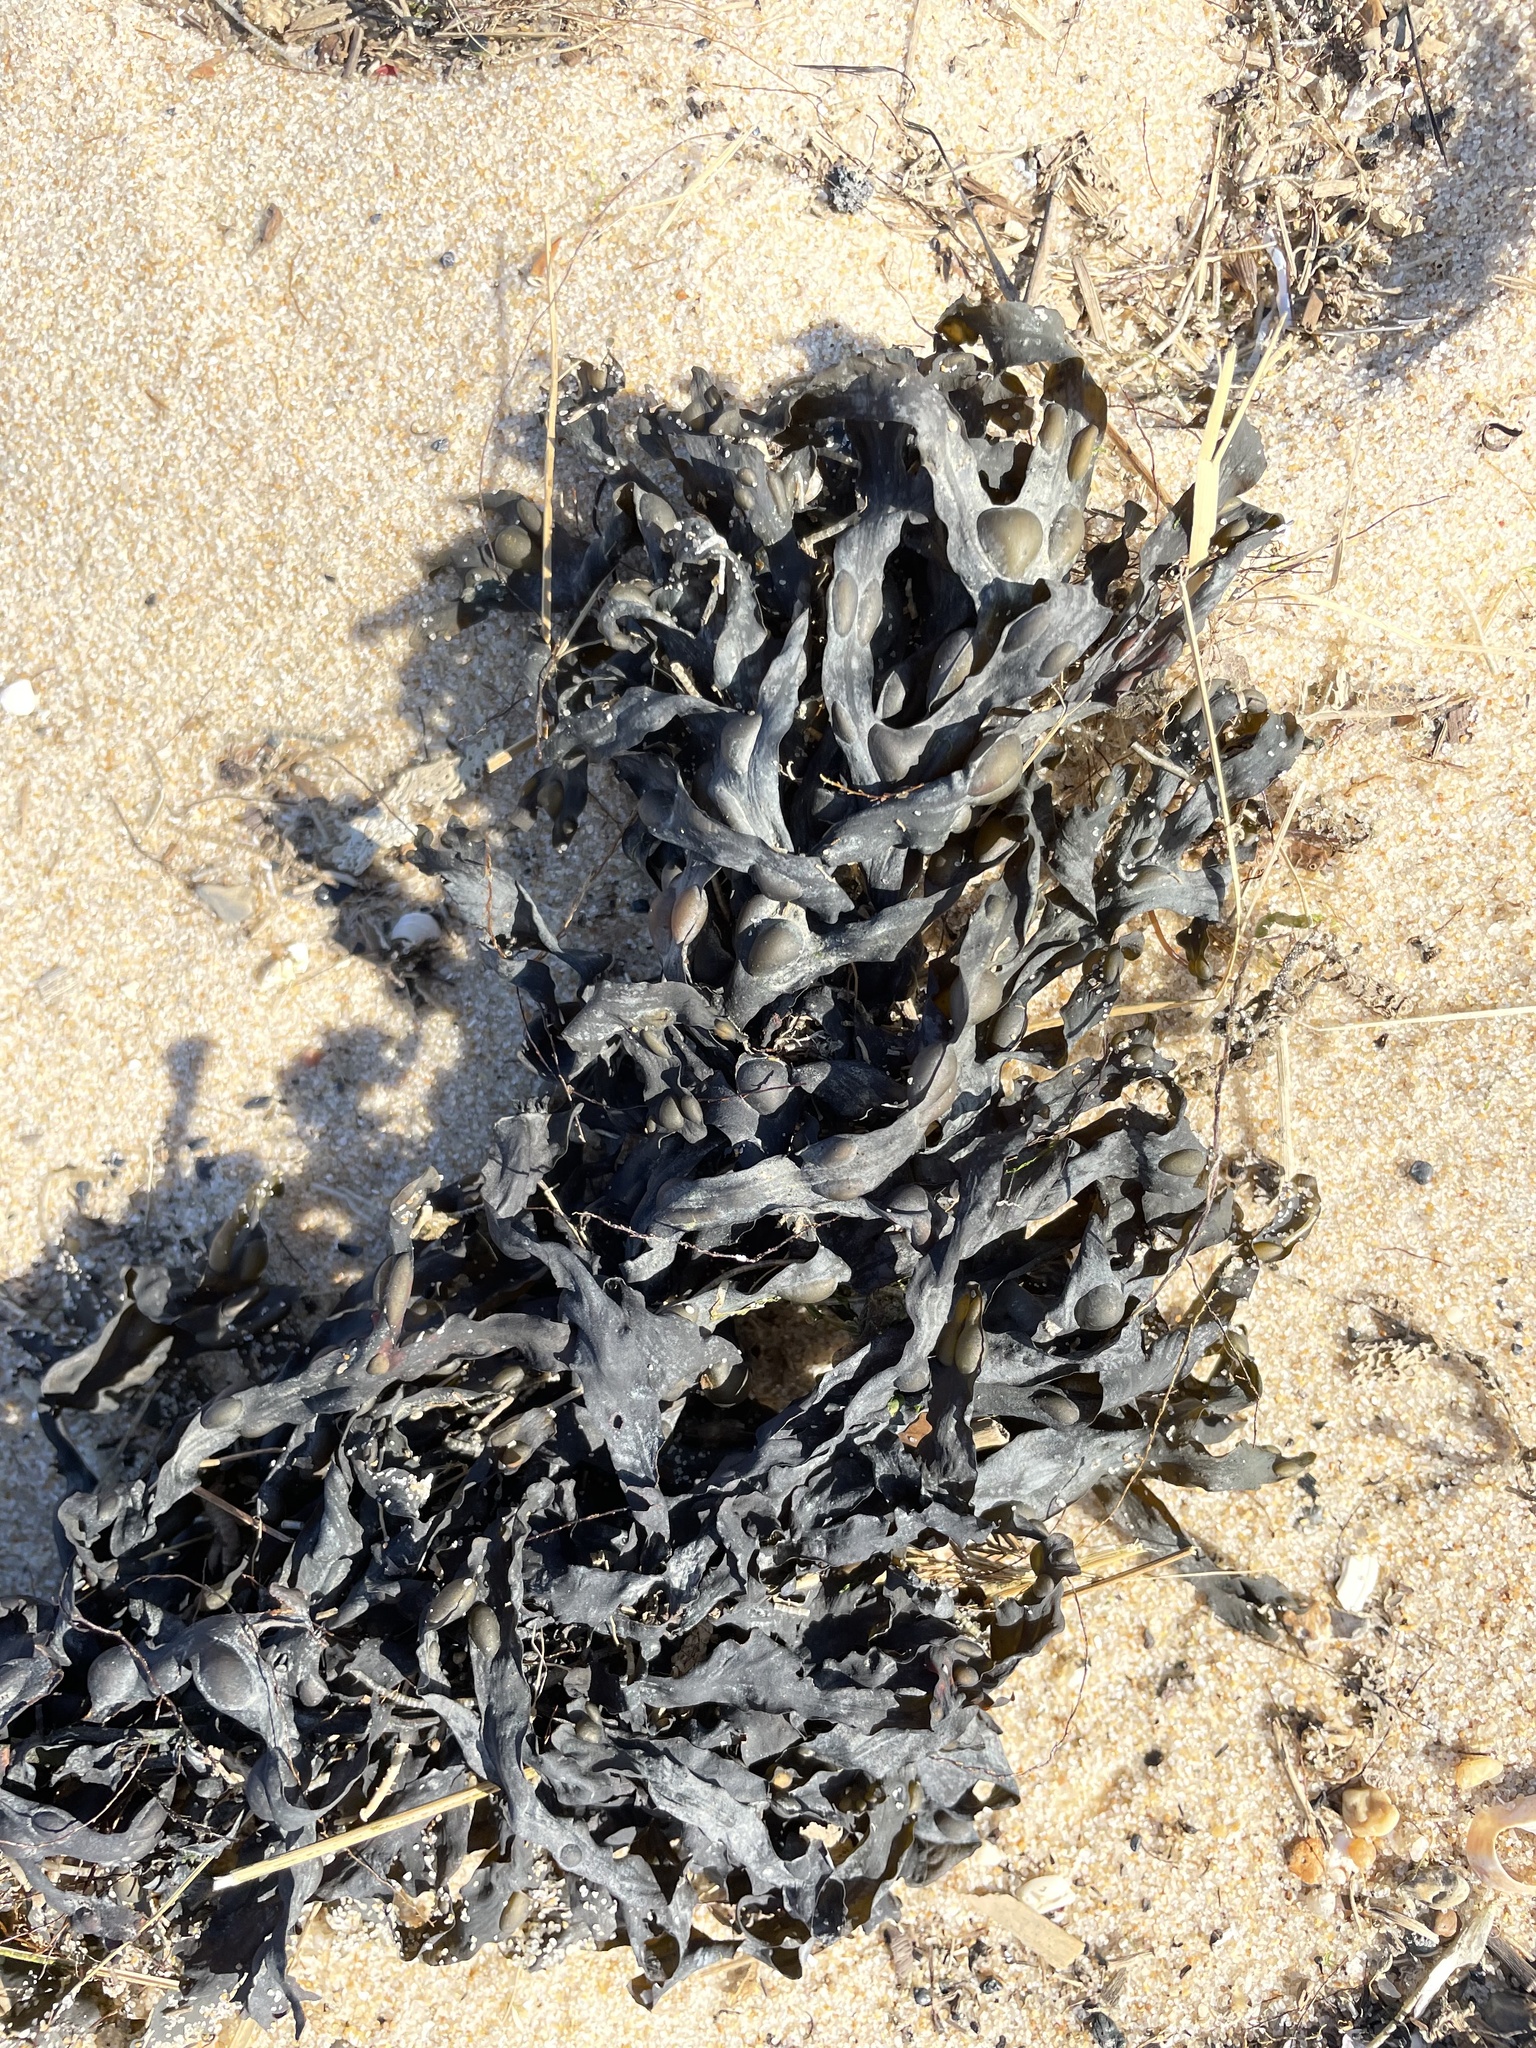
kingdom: Chromista
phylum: Ochrophyta
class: Phaeophyceae
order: Fucales
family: Fucaceae
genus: Fucus
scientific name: Fucus vesiculosus
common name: Bladder wrack
